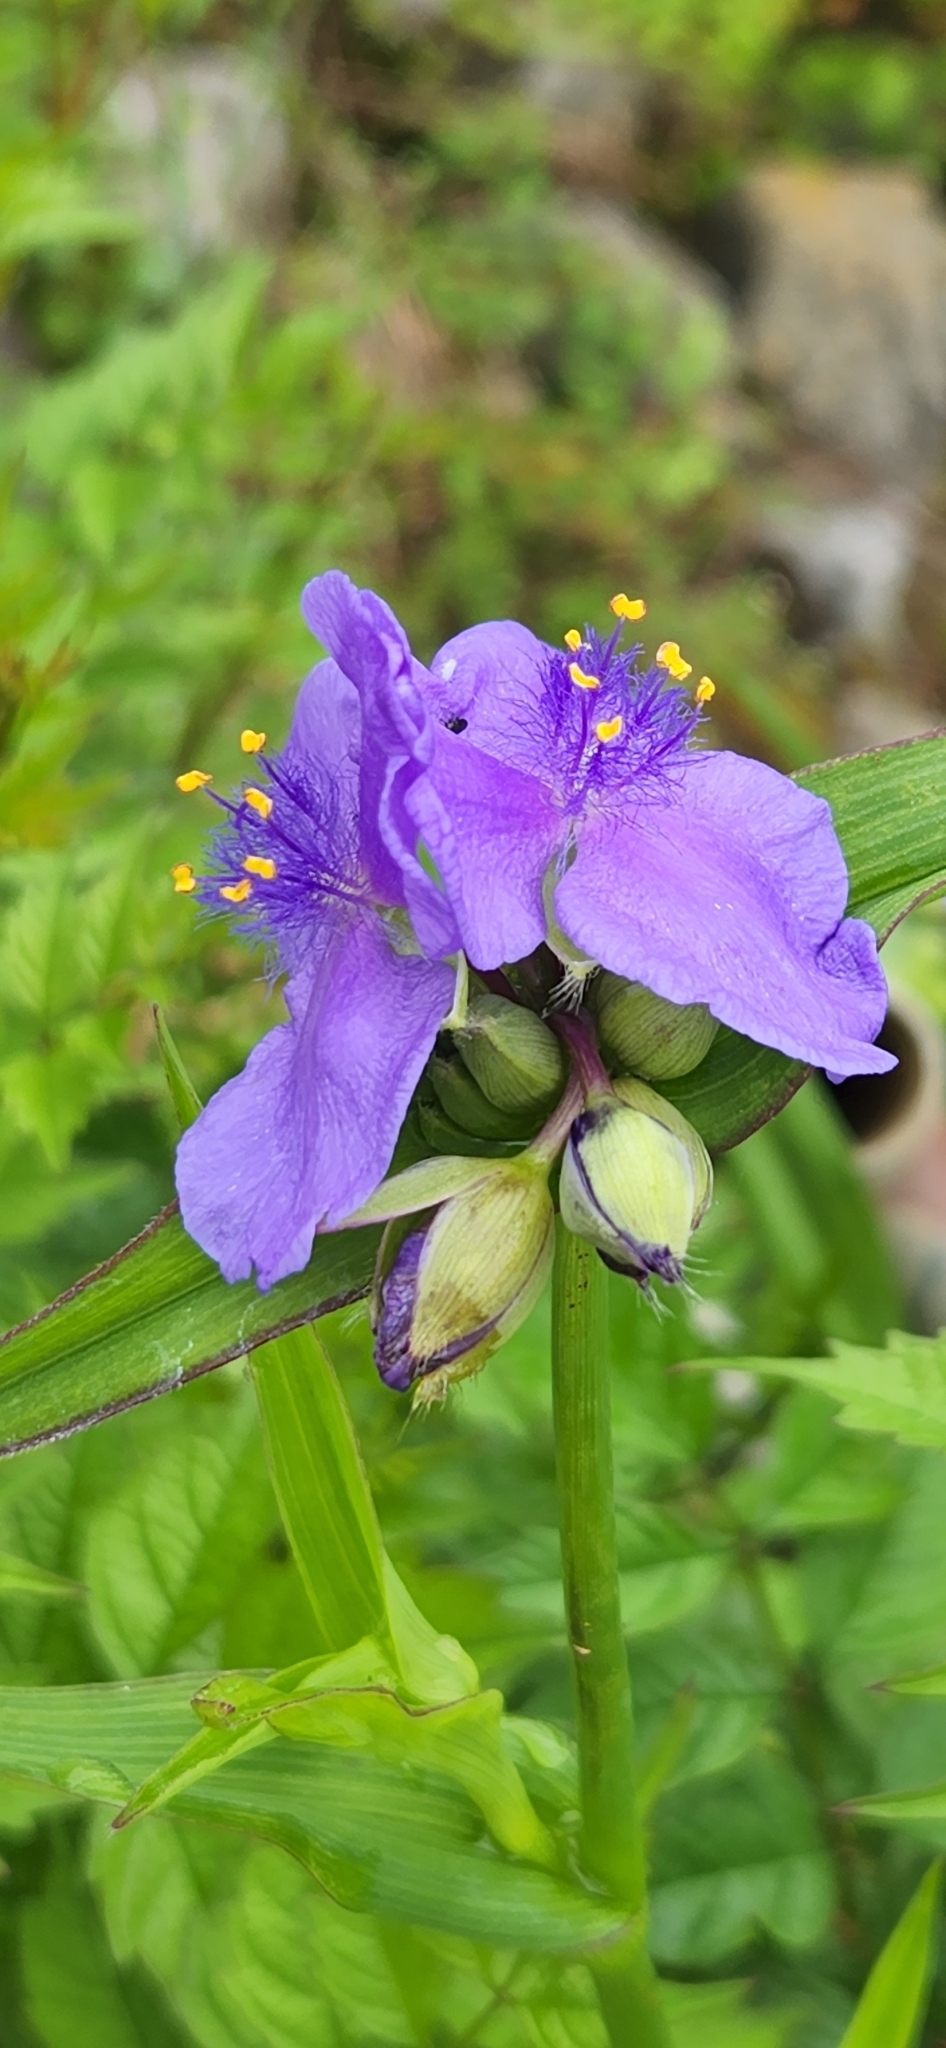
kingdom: Plantae
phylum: Tracheophyta
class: Liliopsida
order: Commelinales
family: Commelinaceae
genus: Tradescantia
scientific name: Tradescantia virginiana
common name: Spiderwort
